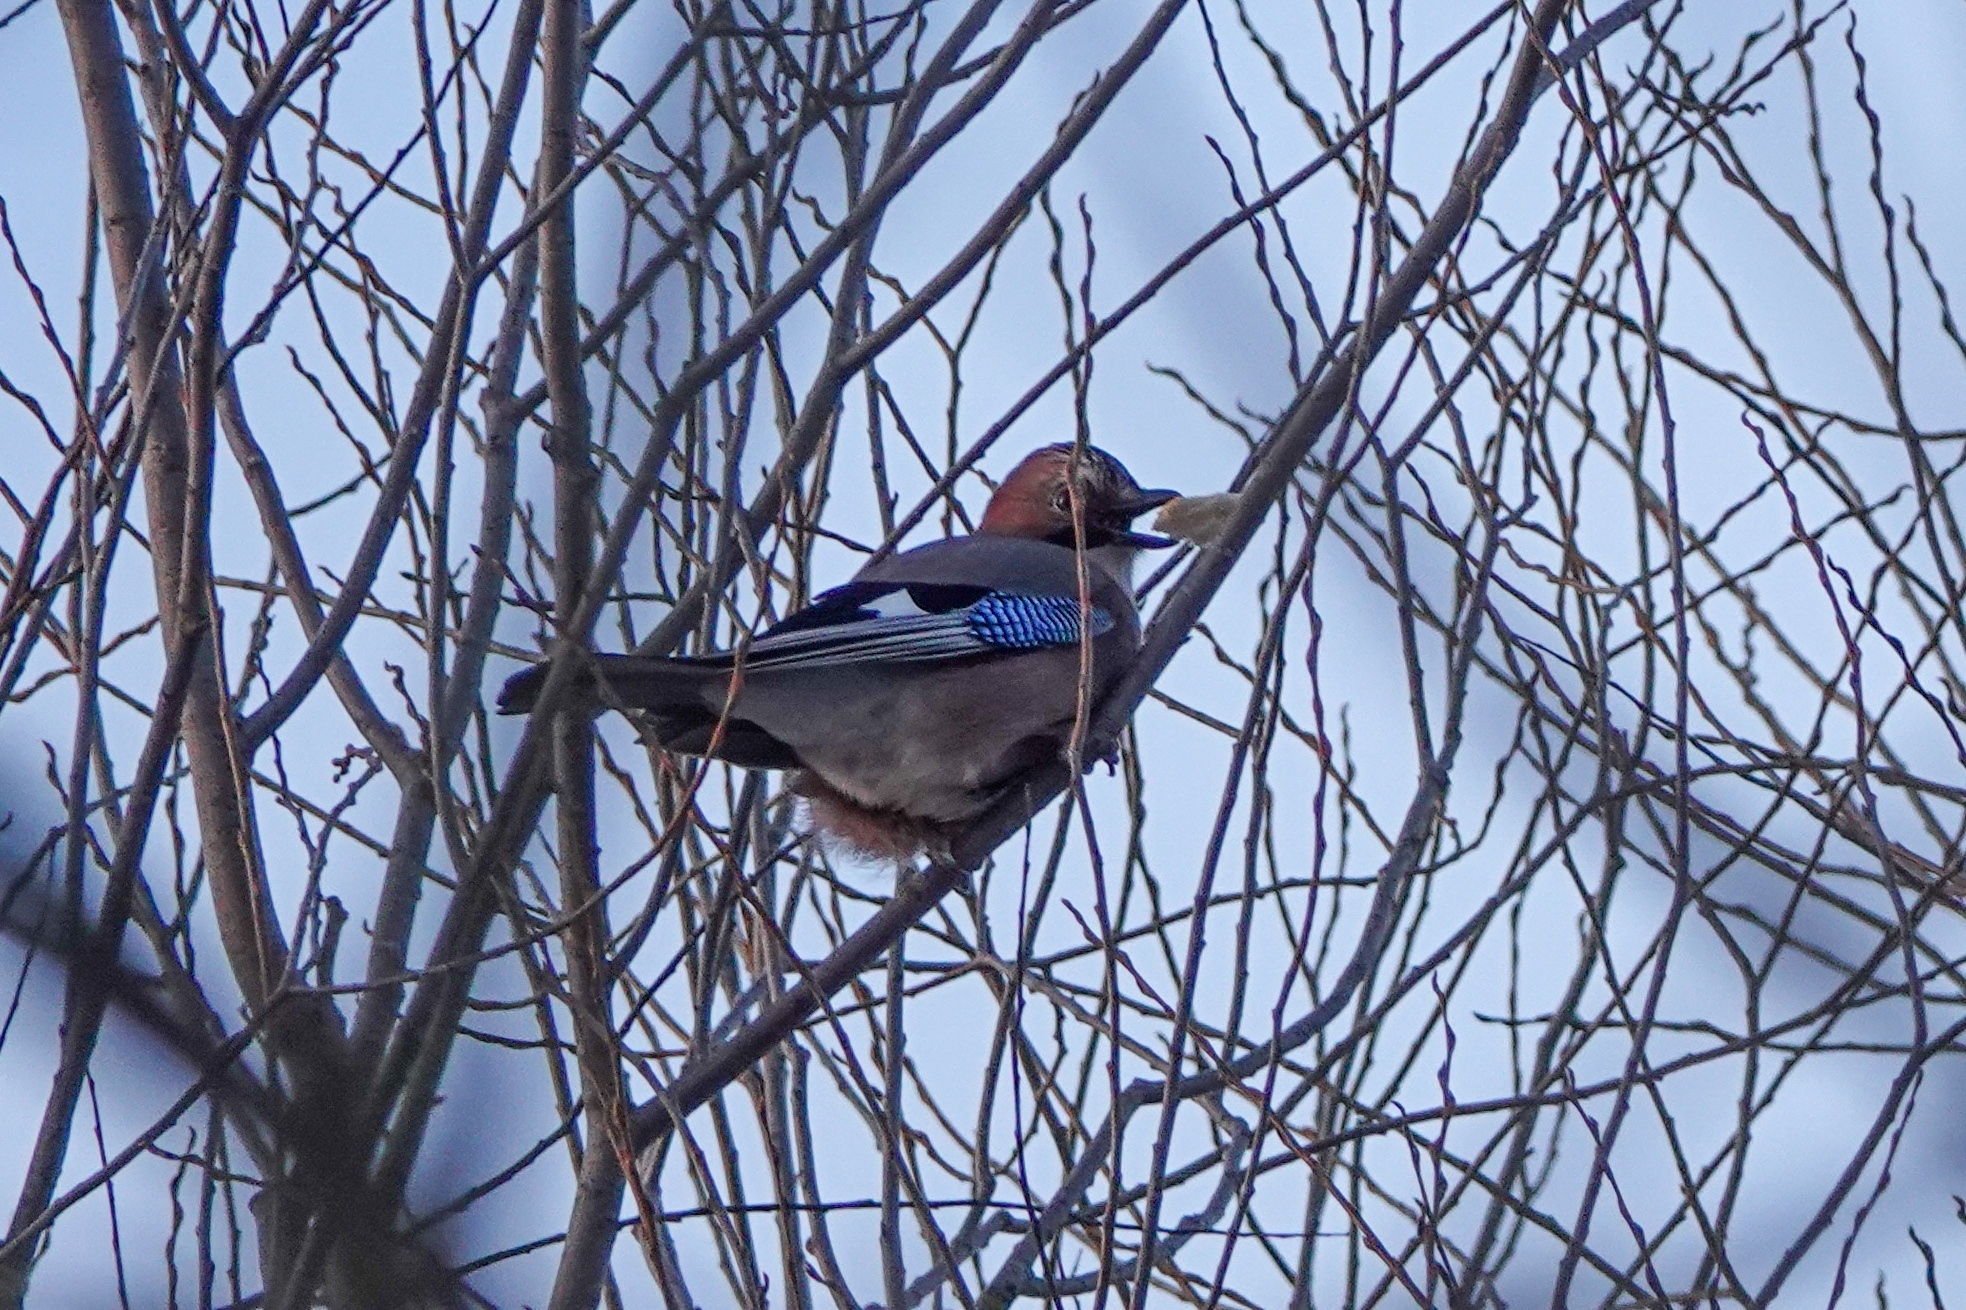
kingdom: Animalia
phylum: Chordata
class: Aves
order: Passeriformes
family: Corvidae
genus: Garrulus
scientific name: Garrulus glandarius
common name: Eurasian jay
